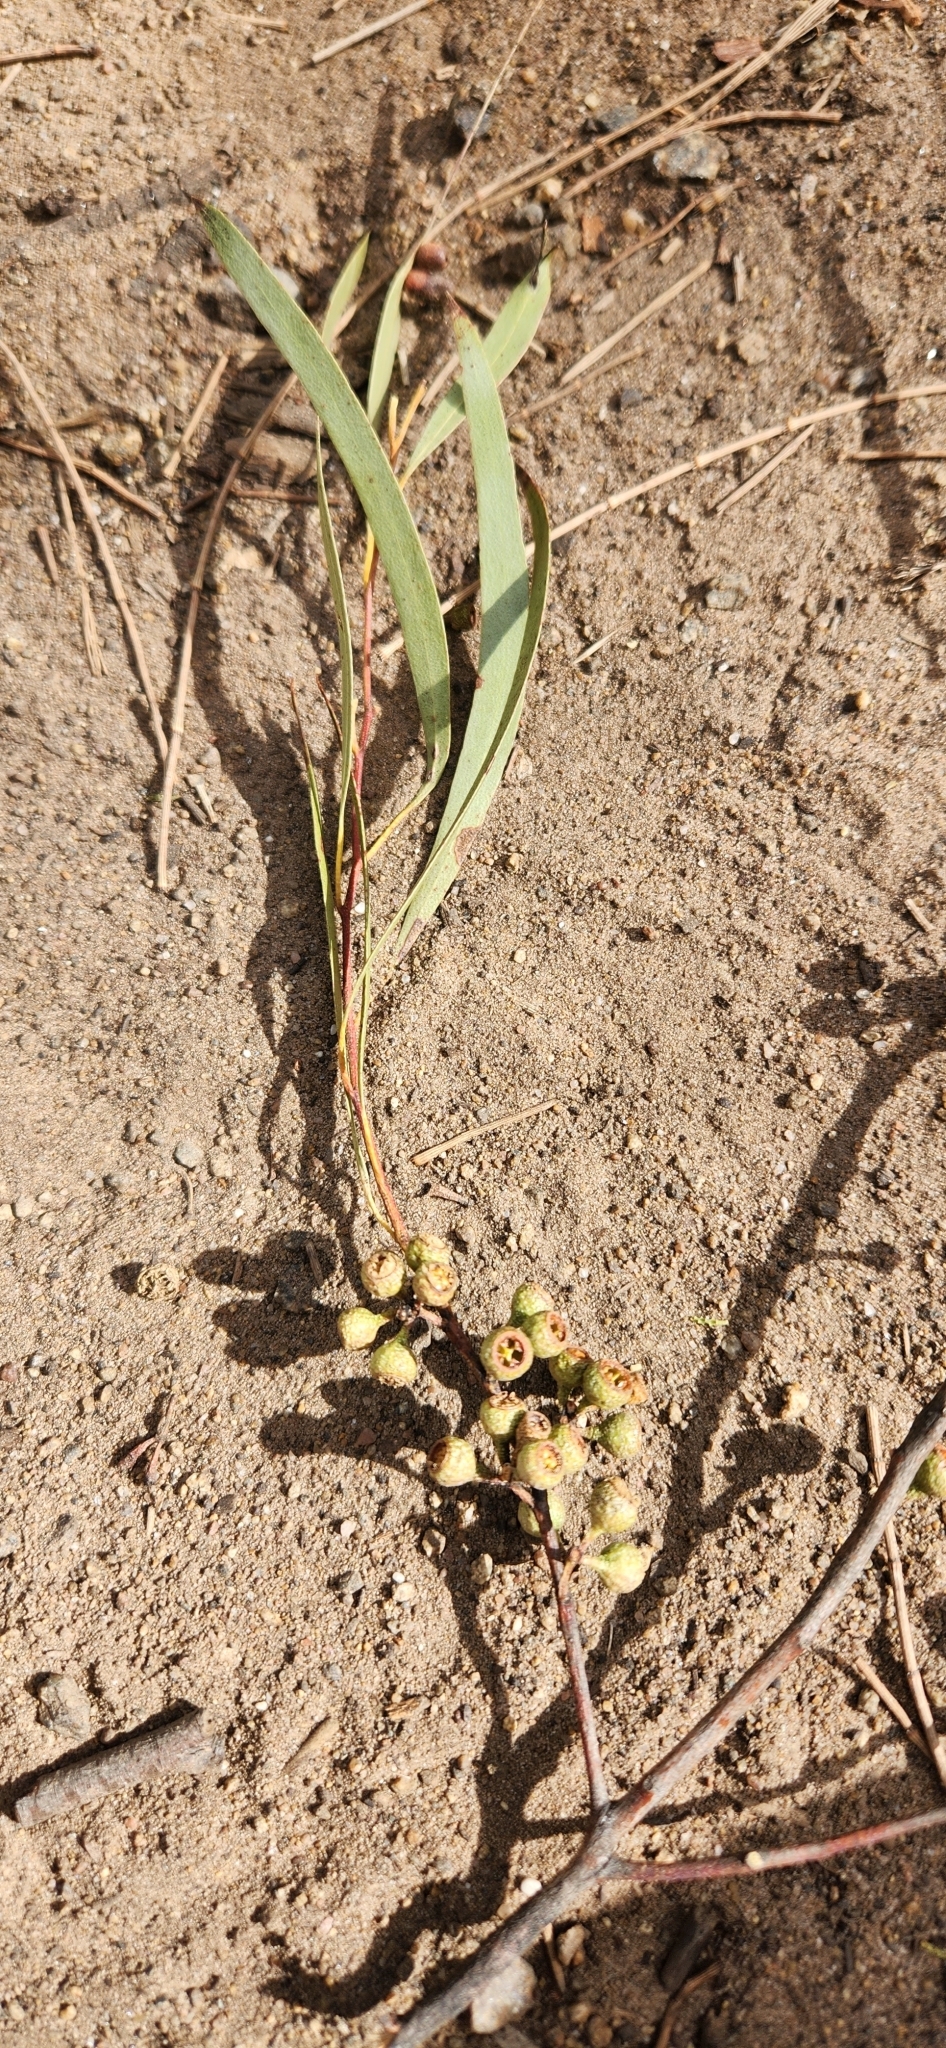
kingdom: Plantae
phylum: Tracheophyta
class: Magnoliopsida
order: Myrtales
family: Myrtaceae
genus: Eucalyptus
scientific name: Eucalyptus pulchella
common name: White peppermint
